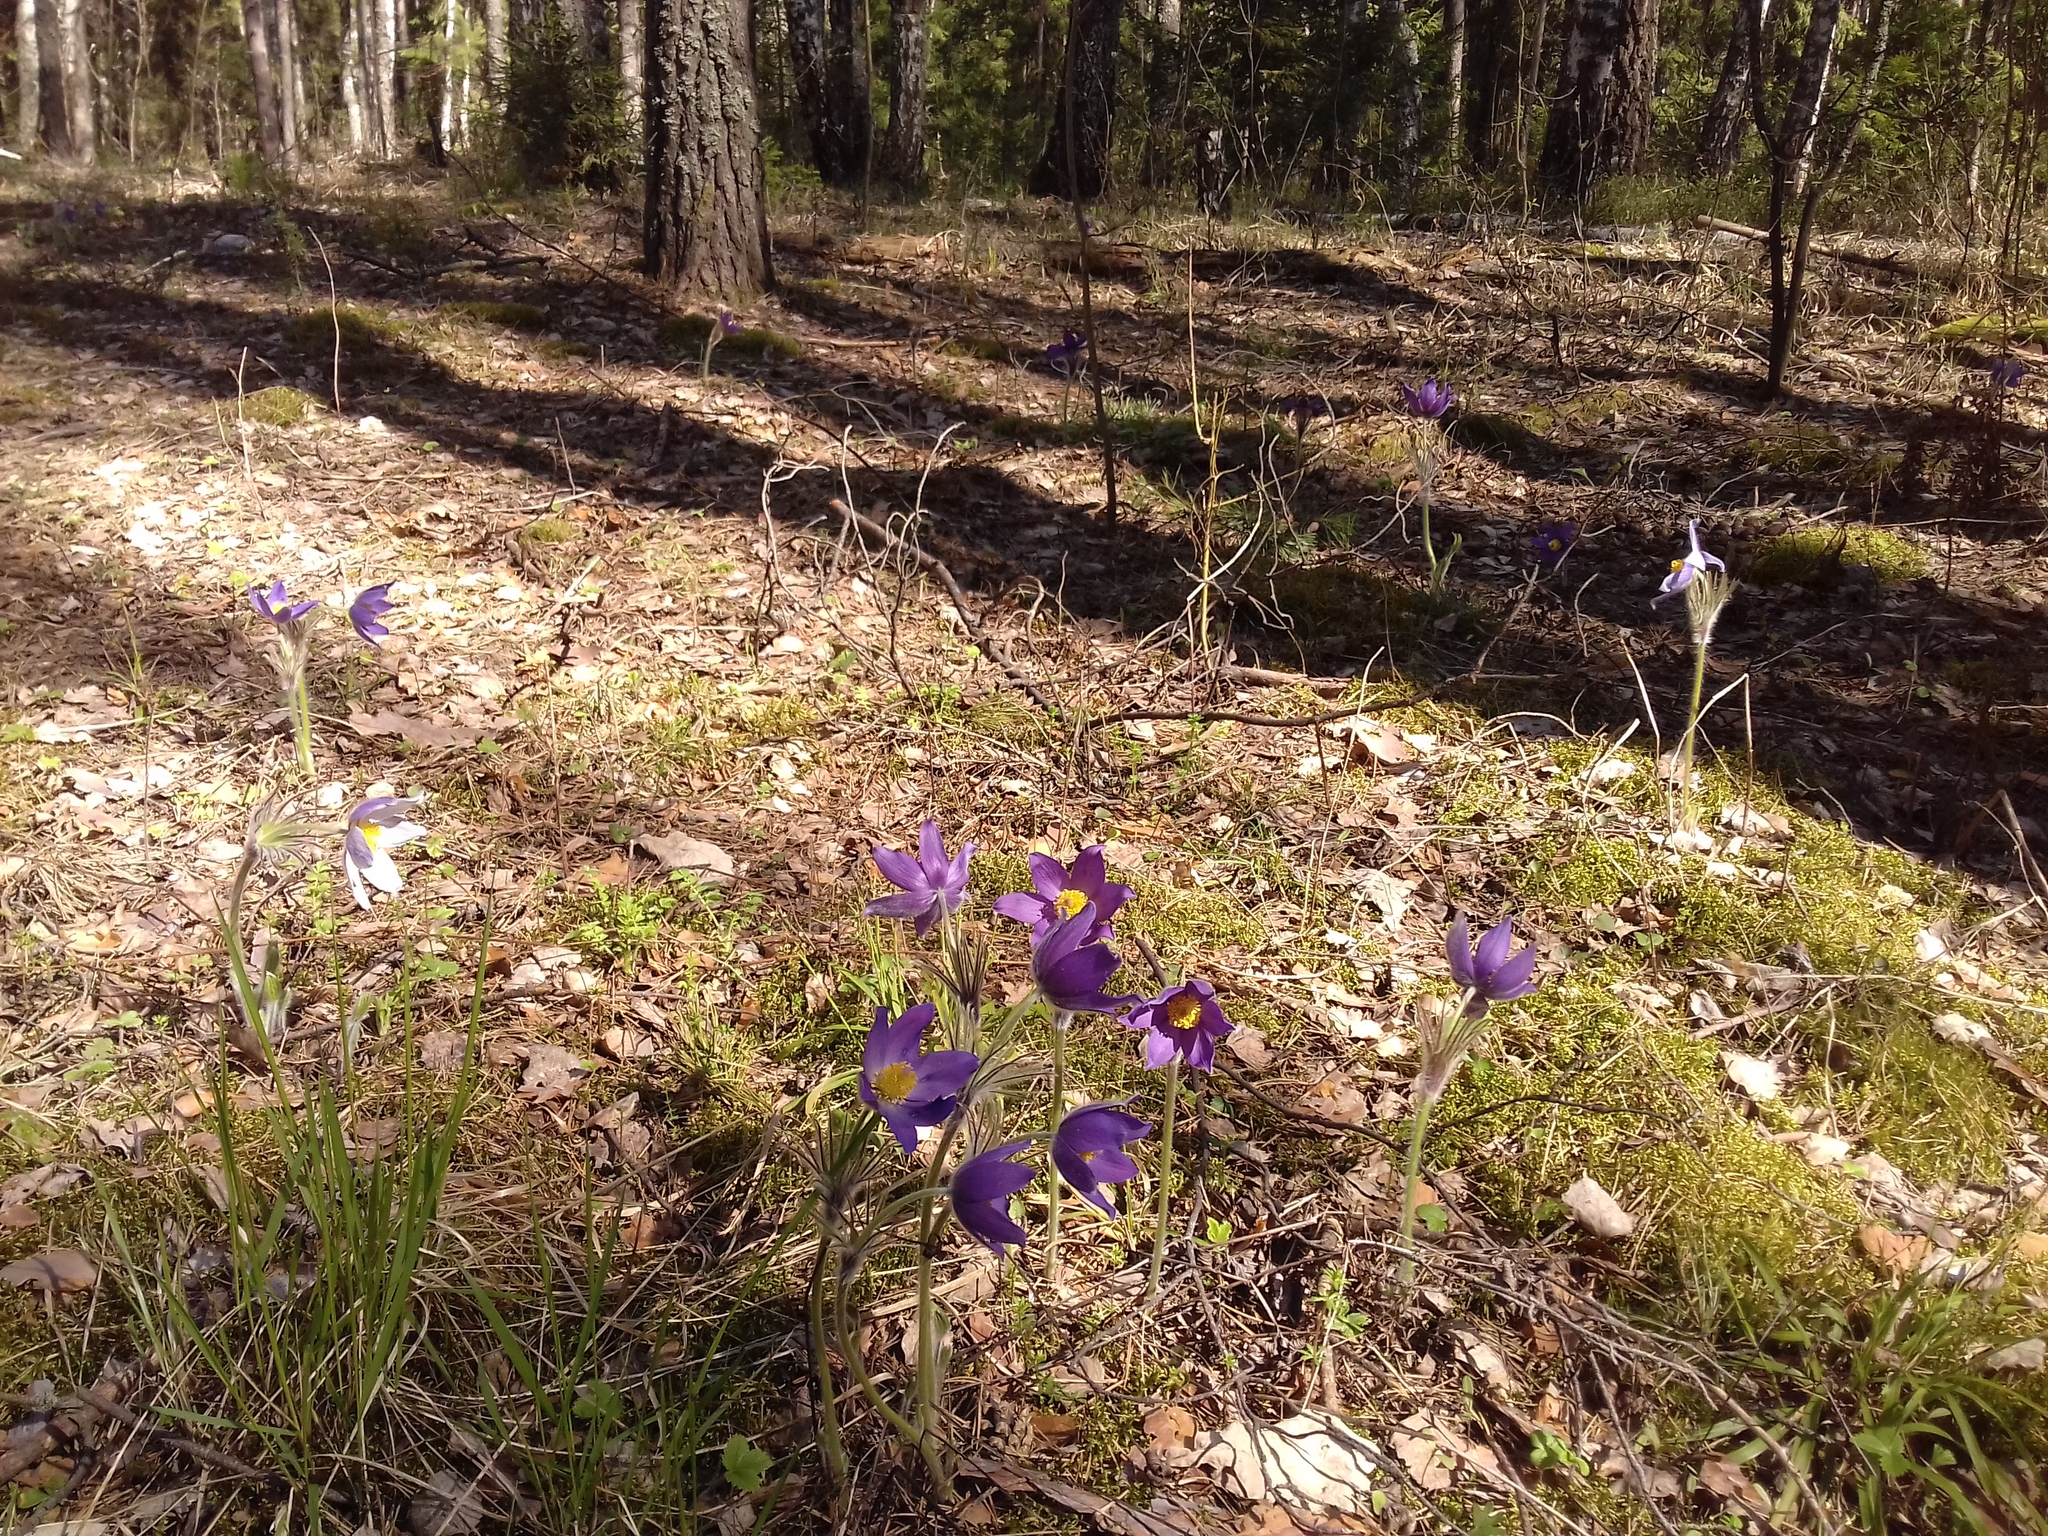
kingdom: Plantae
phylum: Tracheophyta
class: Magnoliopsida
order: Ranunculales
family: Ranunculaceae
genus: Pulsatilla
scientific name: Pulsatilla patens
